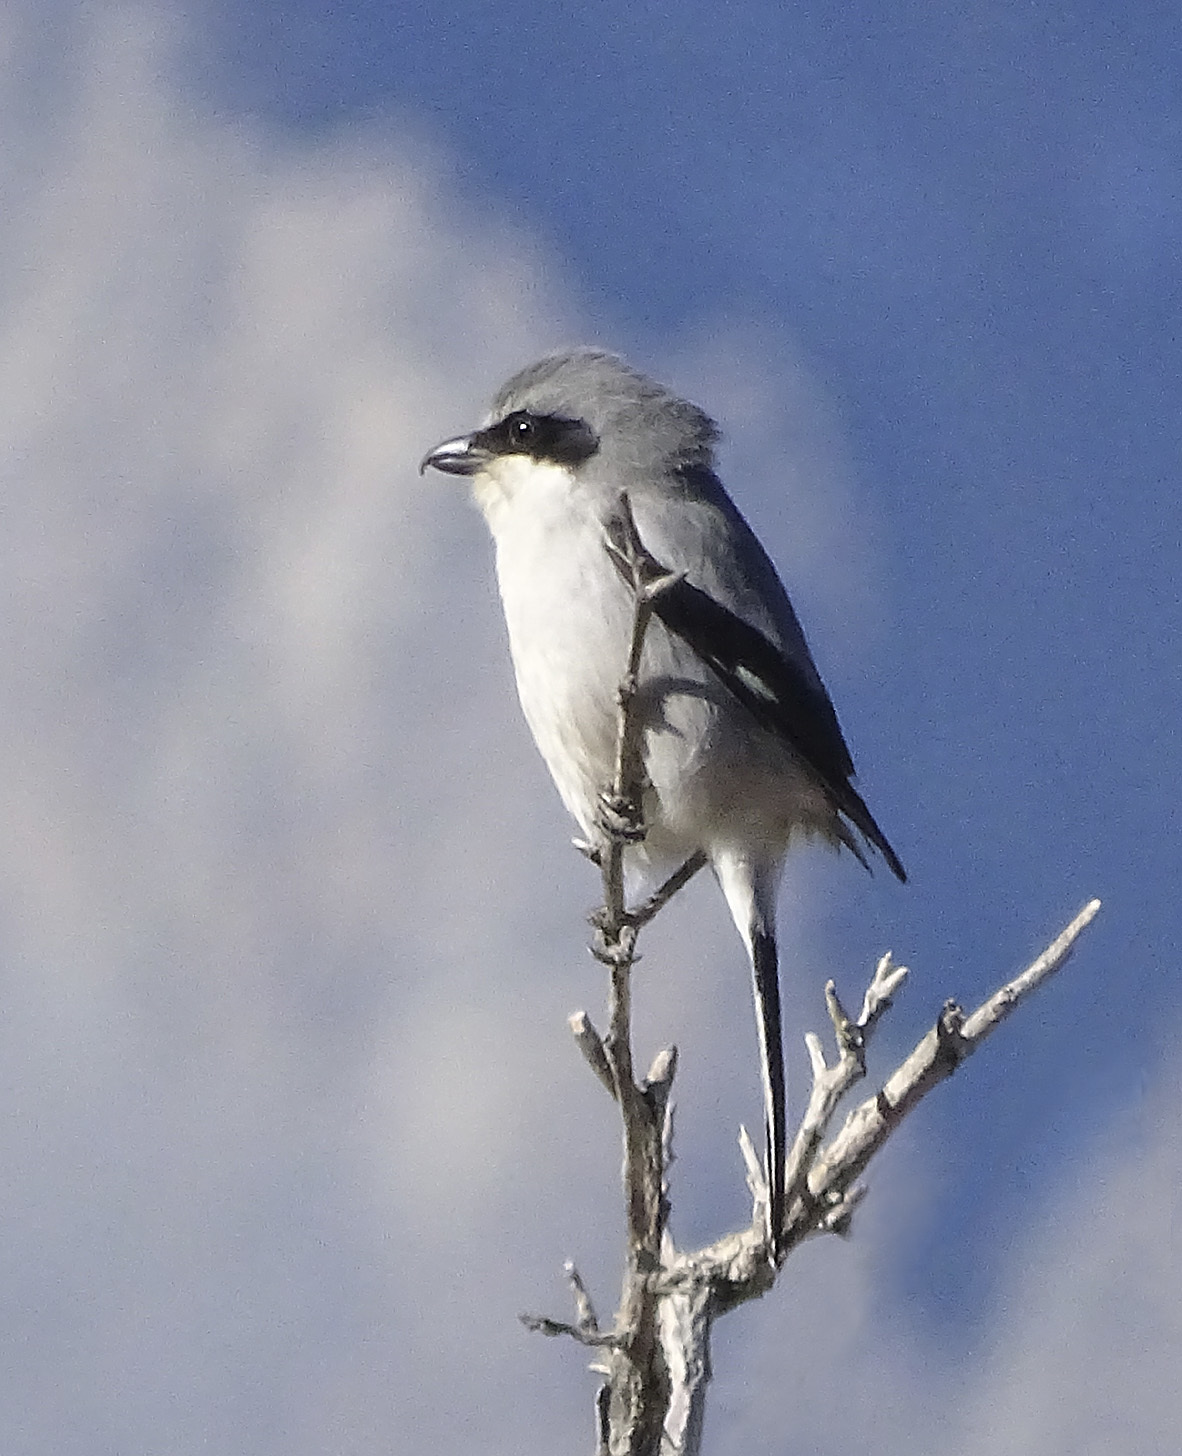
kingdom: Animalia
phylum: Chordata
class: Aves
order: Passeriformes
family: Laniidae
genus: Lanius
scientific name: Lanius ludovicianus
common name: Loggerhead shrike
